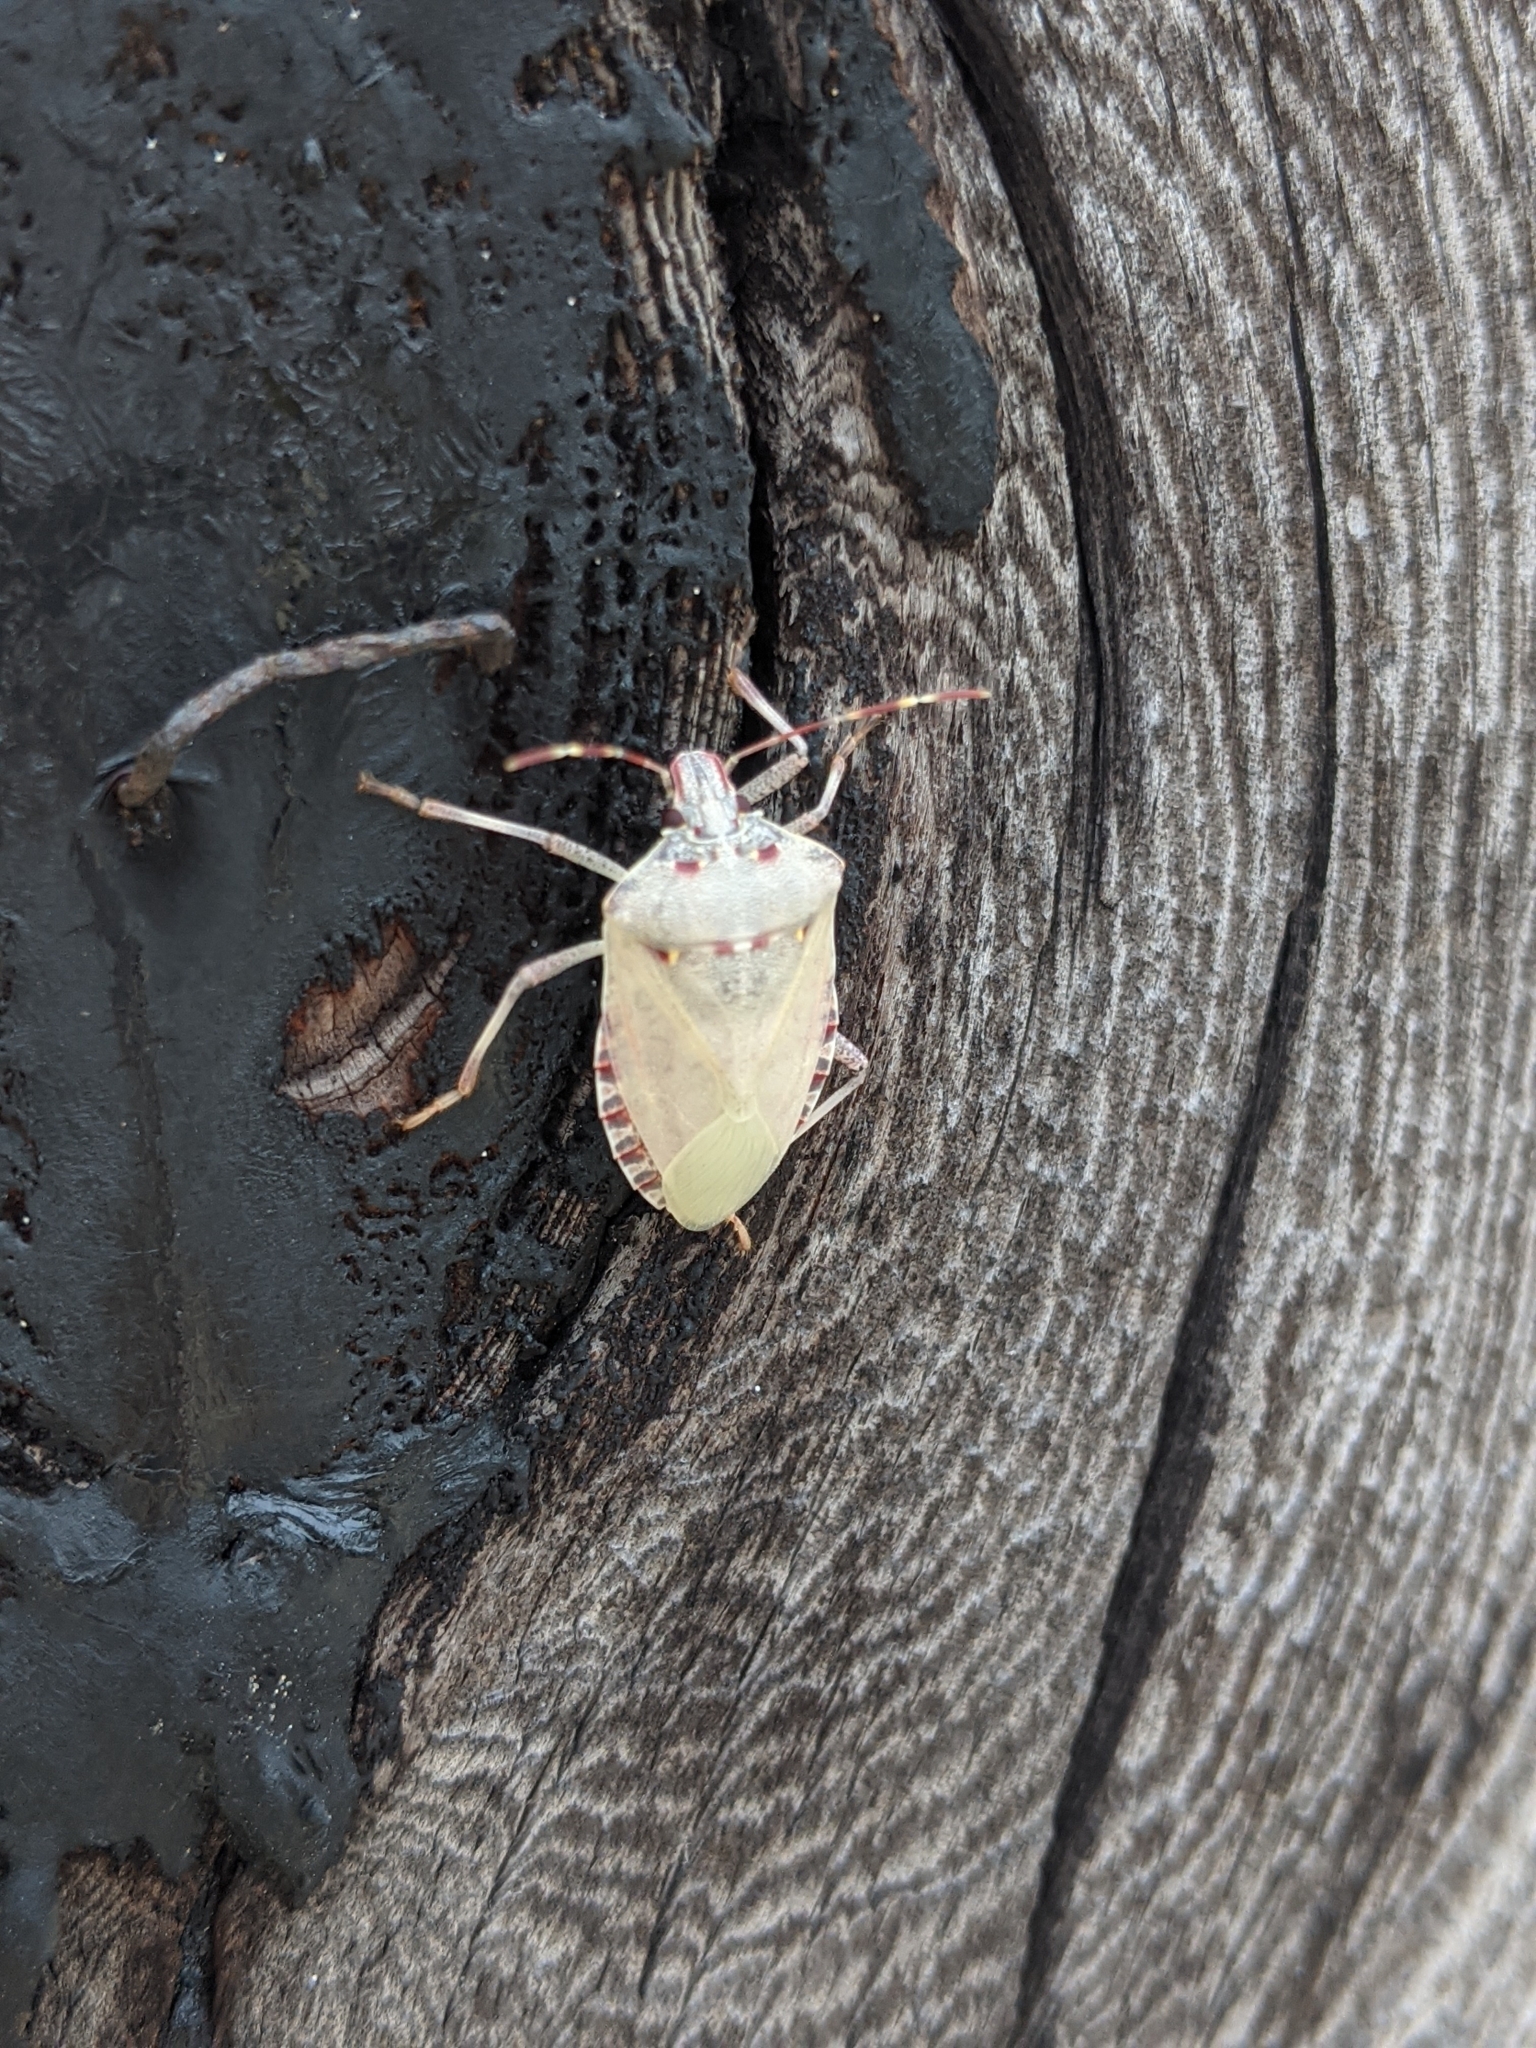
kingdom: Animalia
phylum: Arthropoda
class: Insecta
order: Hemiptera
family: Pentatomidae
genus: Halyomorpha
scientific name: Halyomorpha halys
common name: Brown marmorated stink bug
